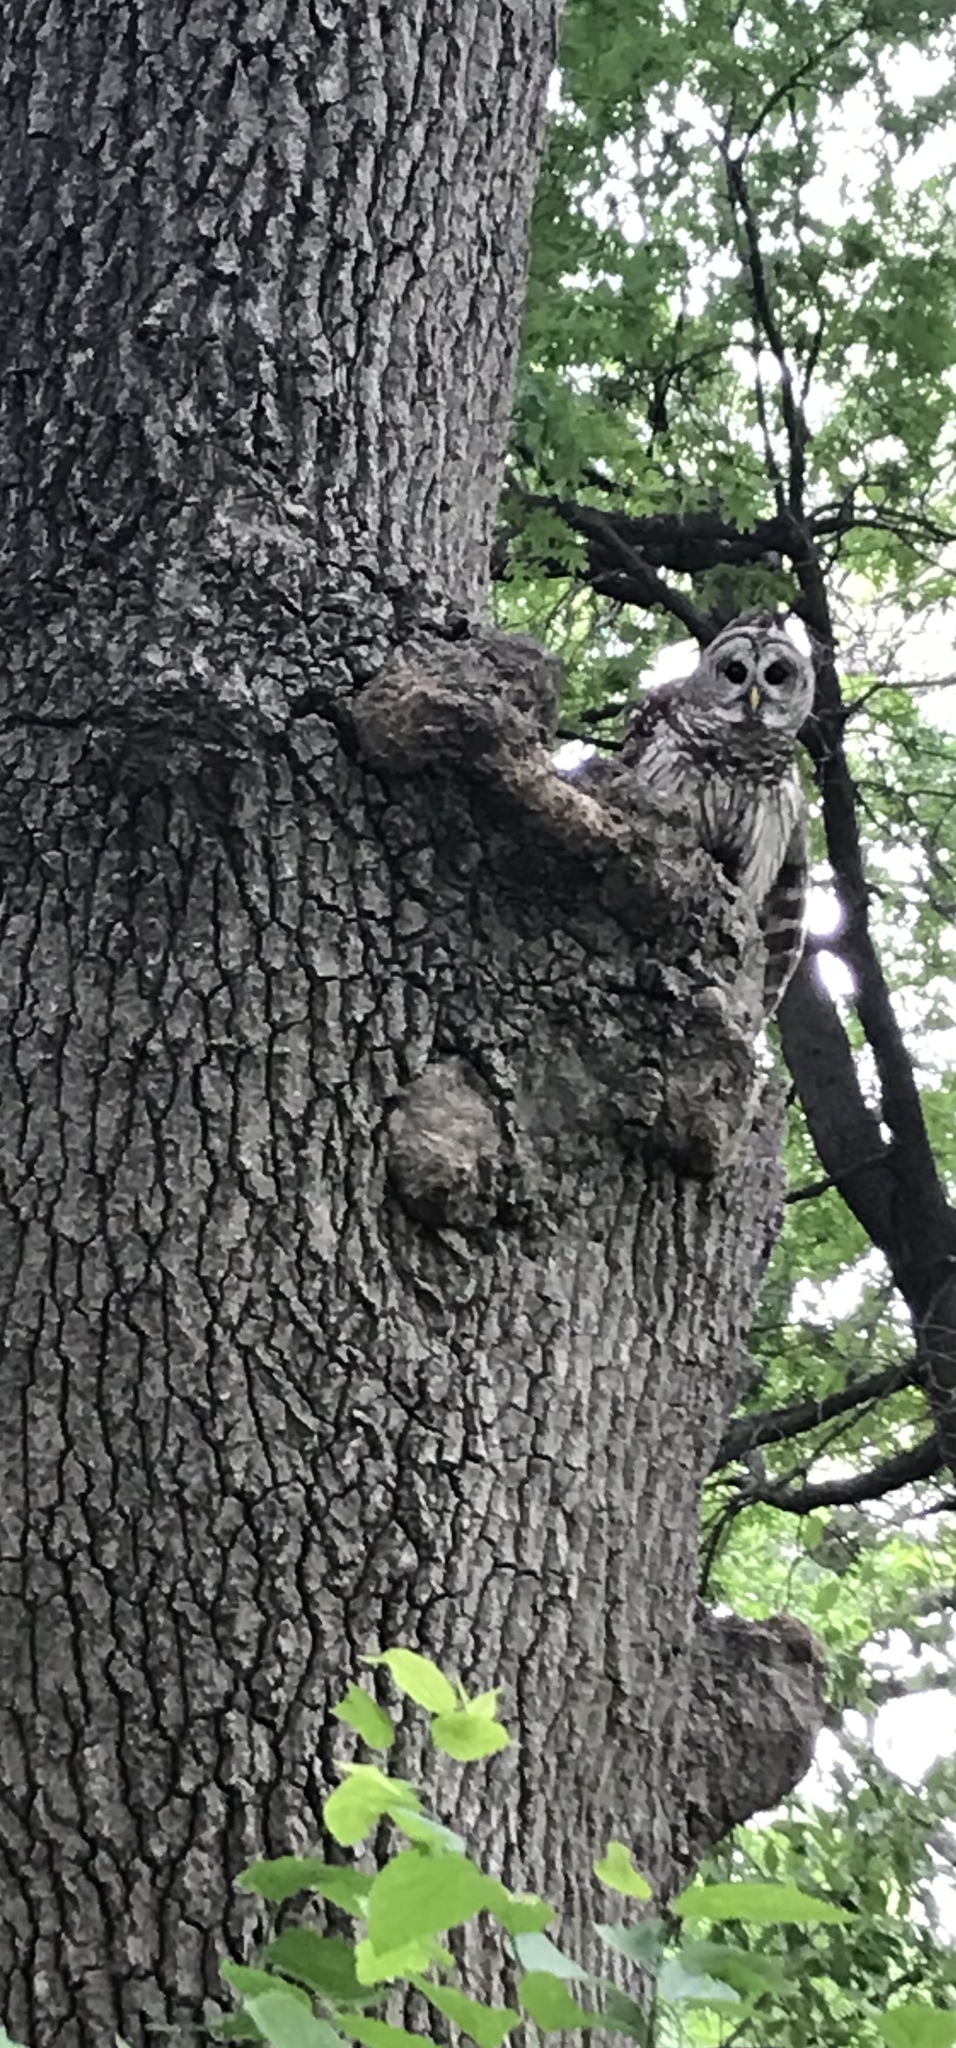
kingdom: Animalia
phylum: Chordata
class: Aves
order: Strigiformes
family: Strigidae
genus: Strix
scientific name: Strix varia
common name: Barred owl
